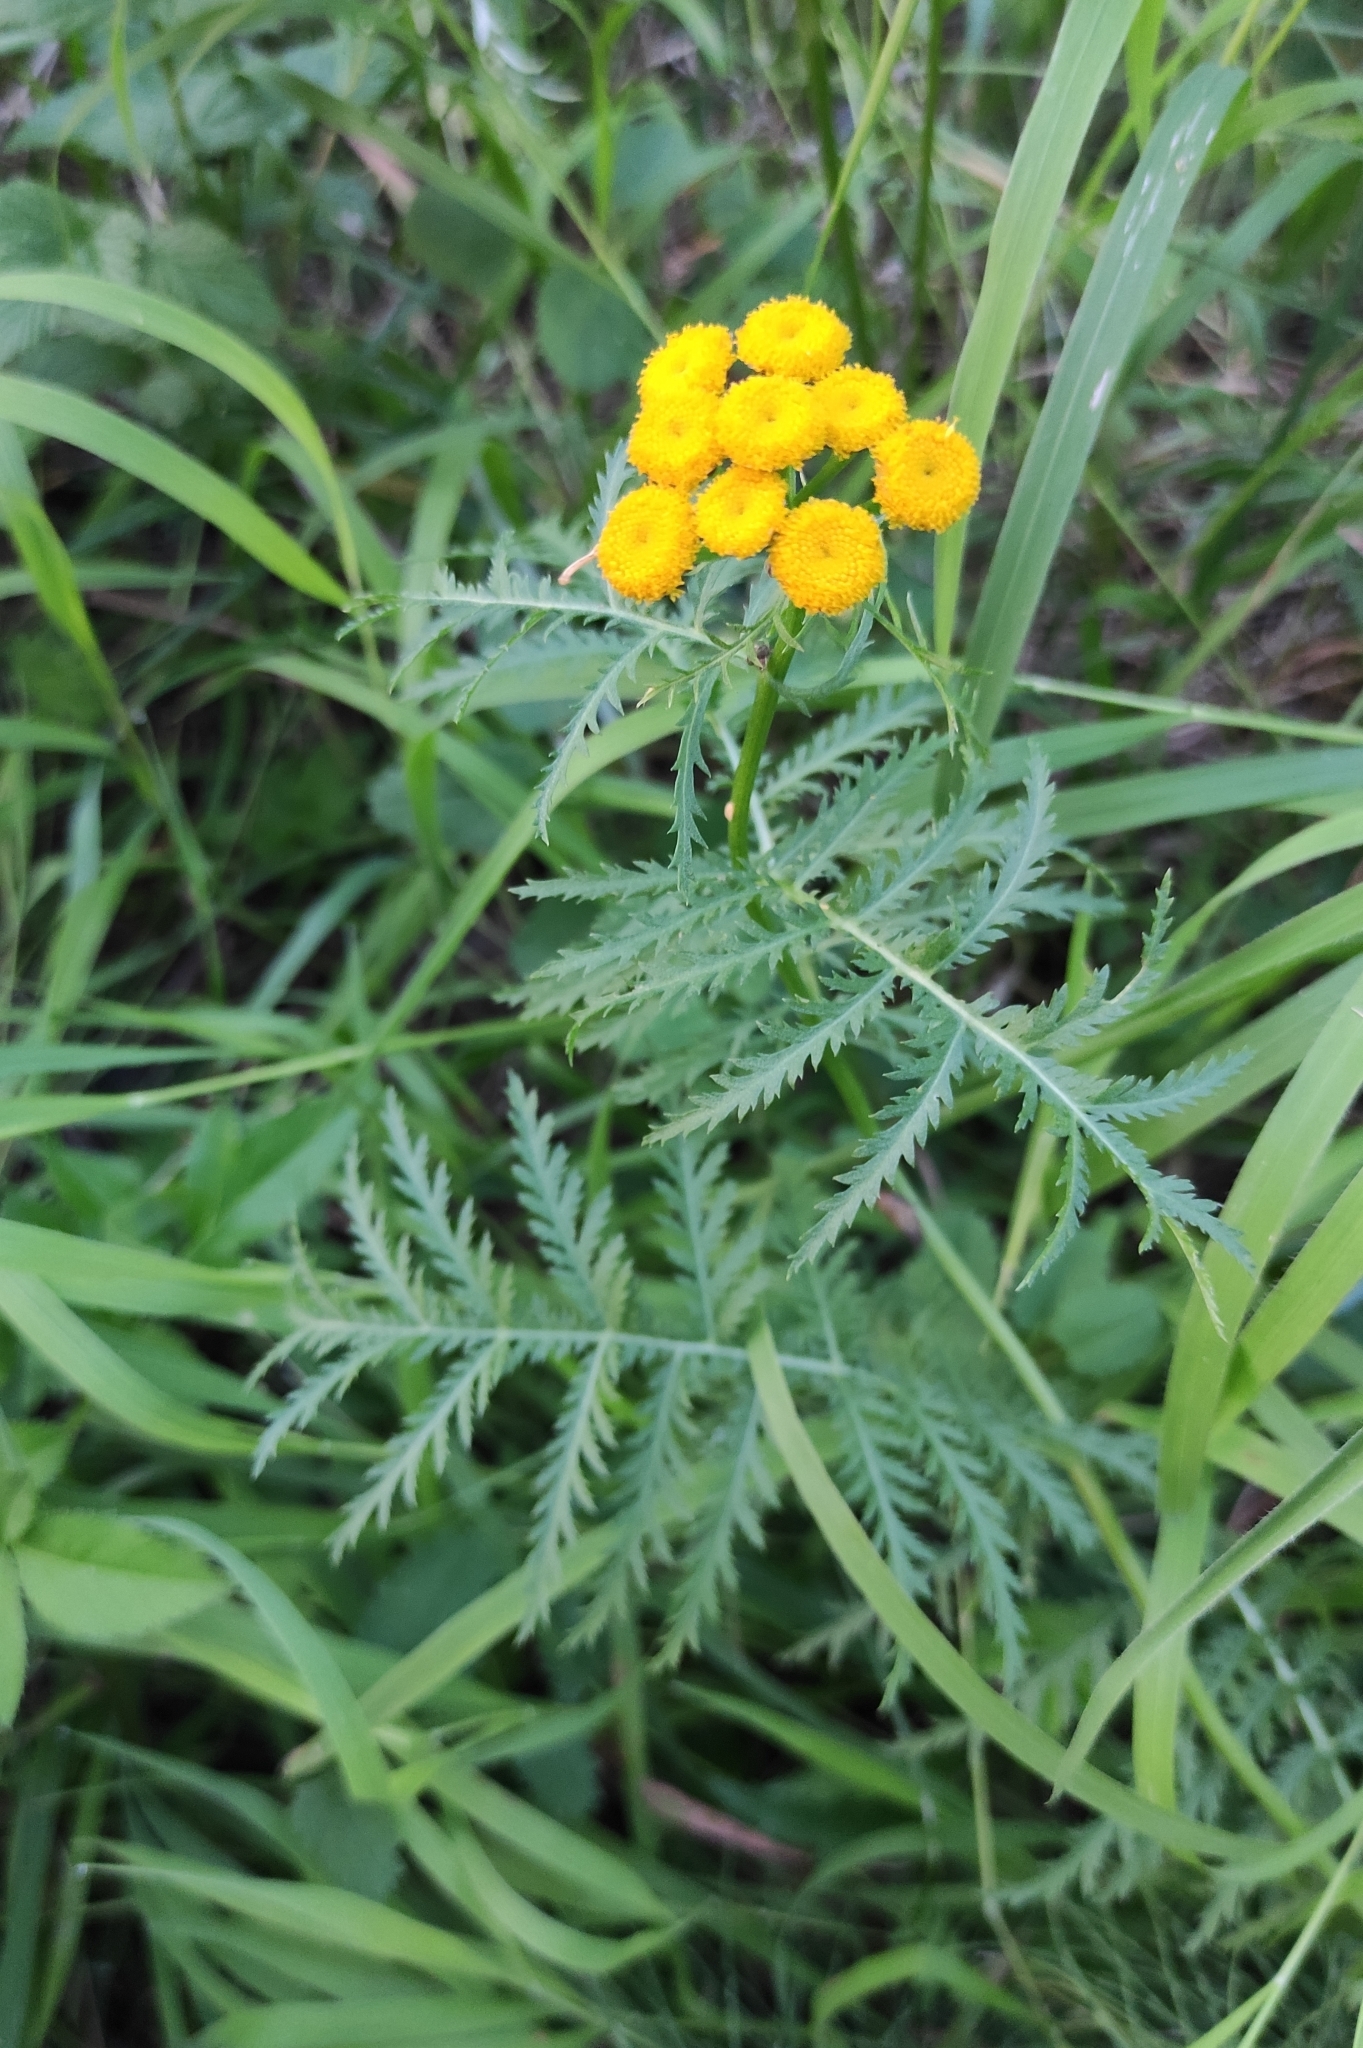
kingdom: Plantae
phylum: Tracheophyta
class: Magnoliopsida
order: Asterales
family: Asteraceae
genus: Tanacetum
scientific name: Tanacetum vulgare
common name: Common tansy
